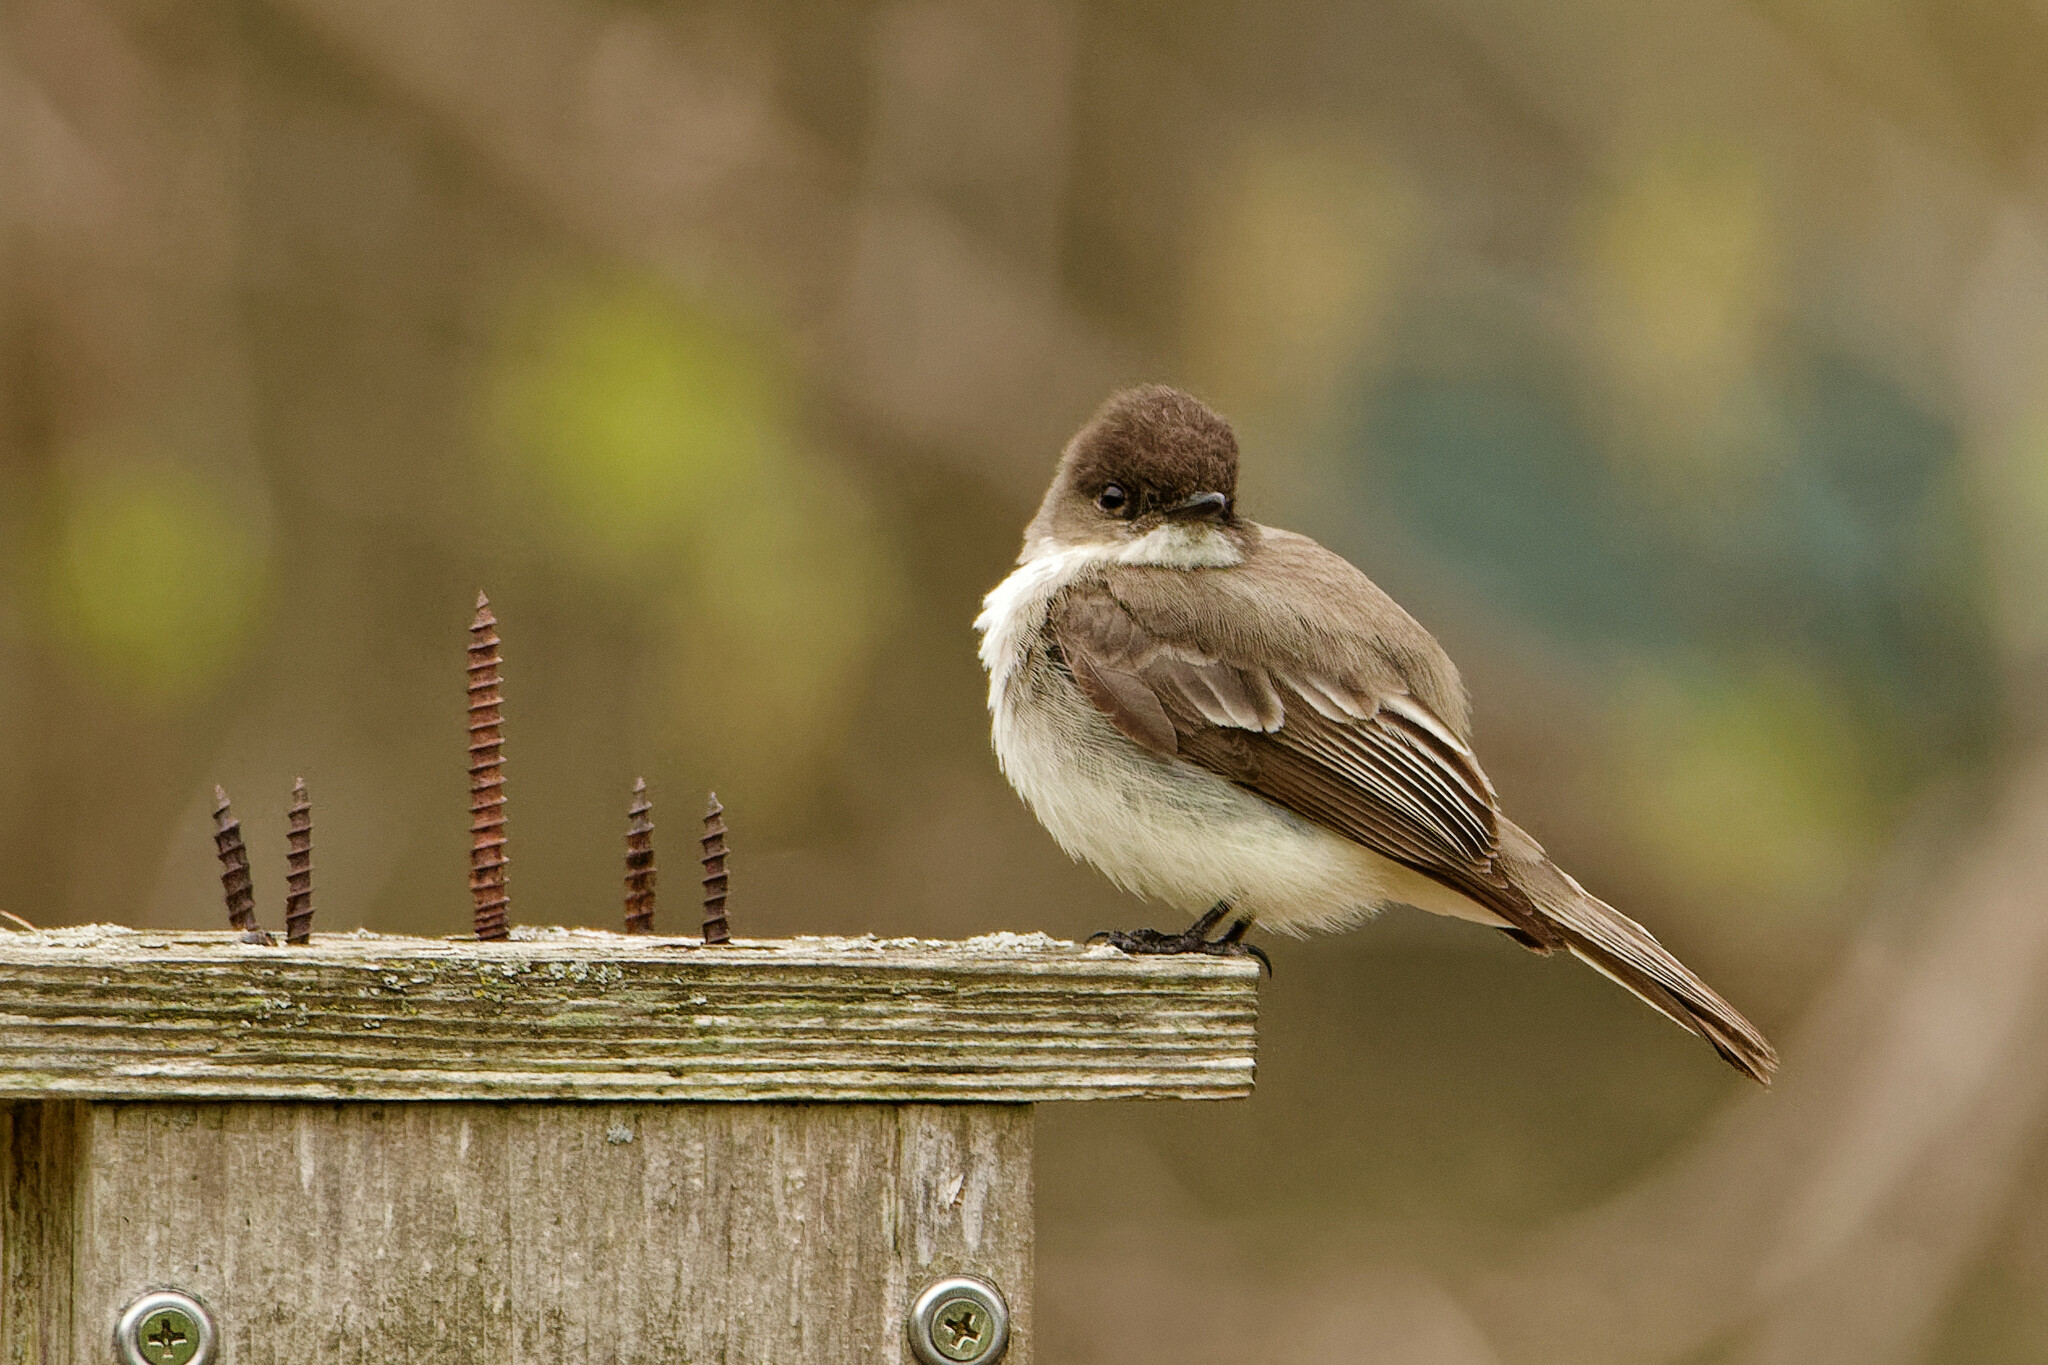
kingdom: Animalia
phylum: Chordata
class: Aves
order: Passeriformes
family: Tyrannidae
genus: Sayornis
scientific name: Sayornis phoebe
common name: Eastern phoebe
